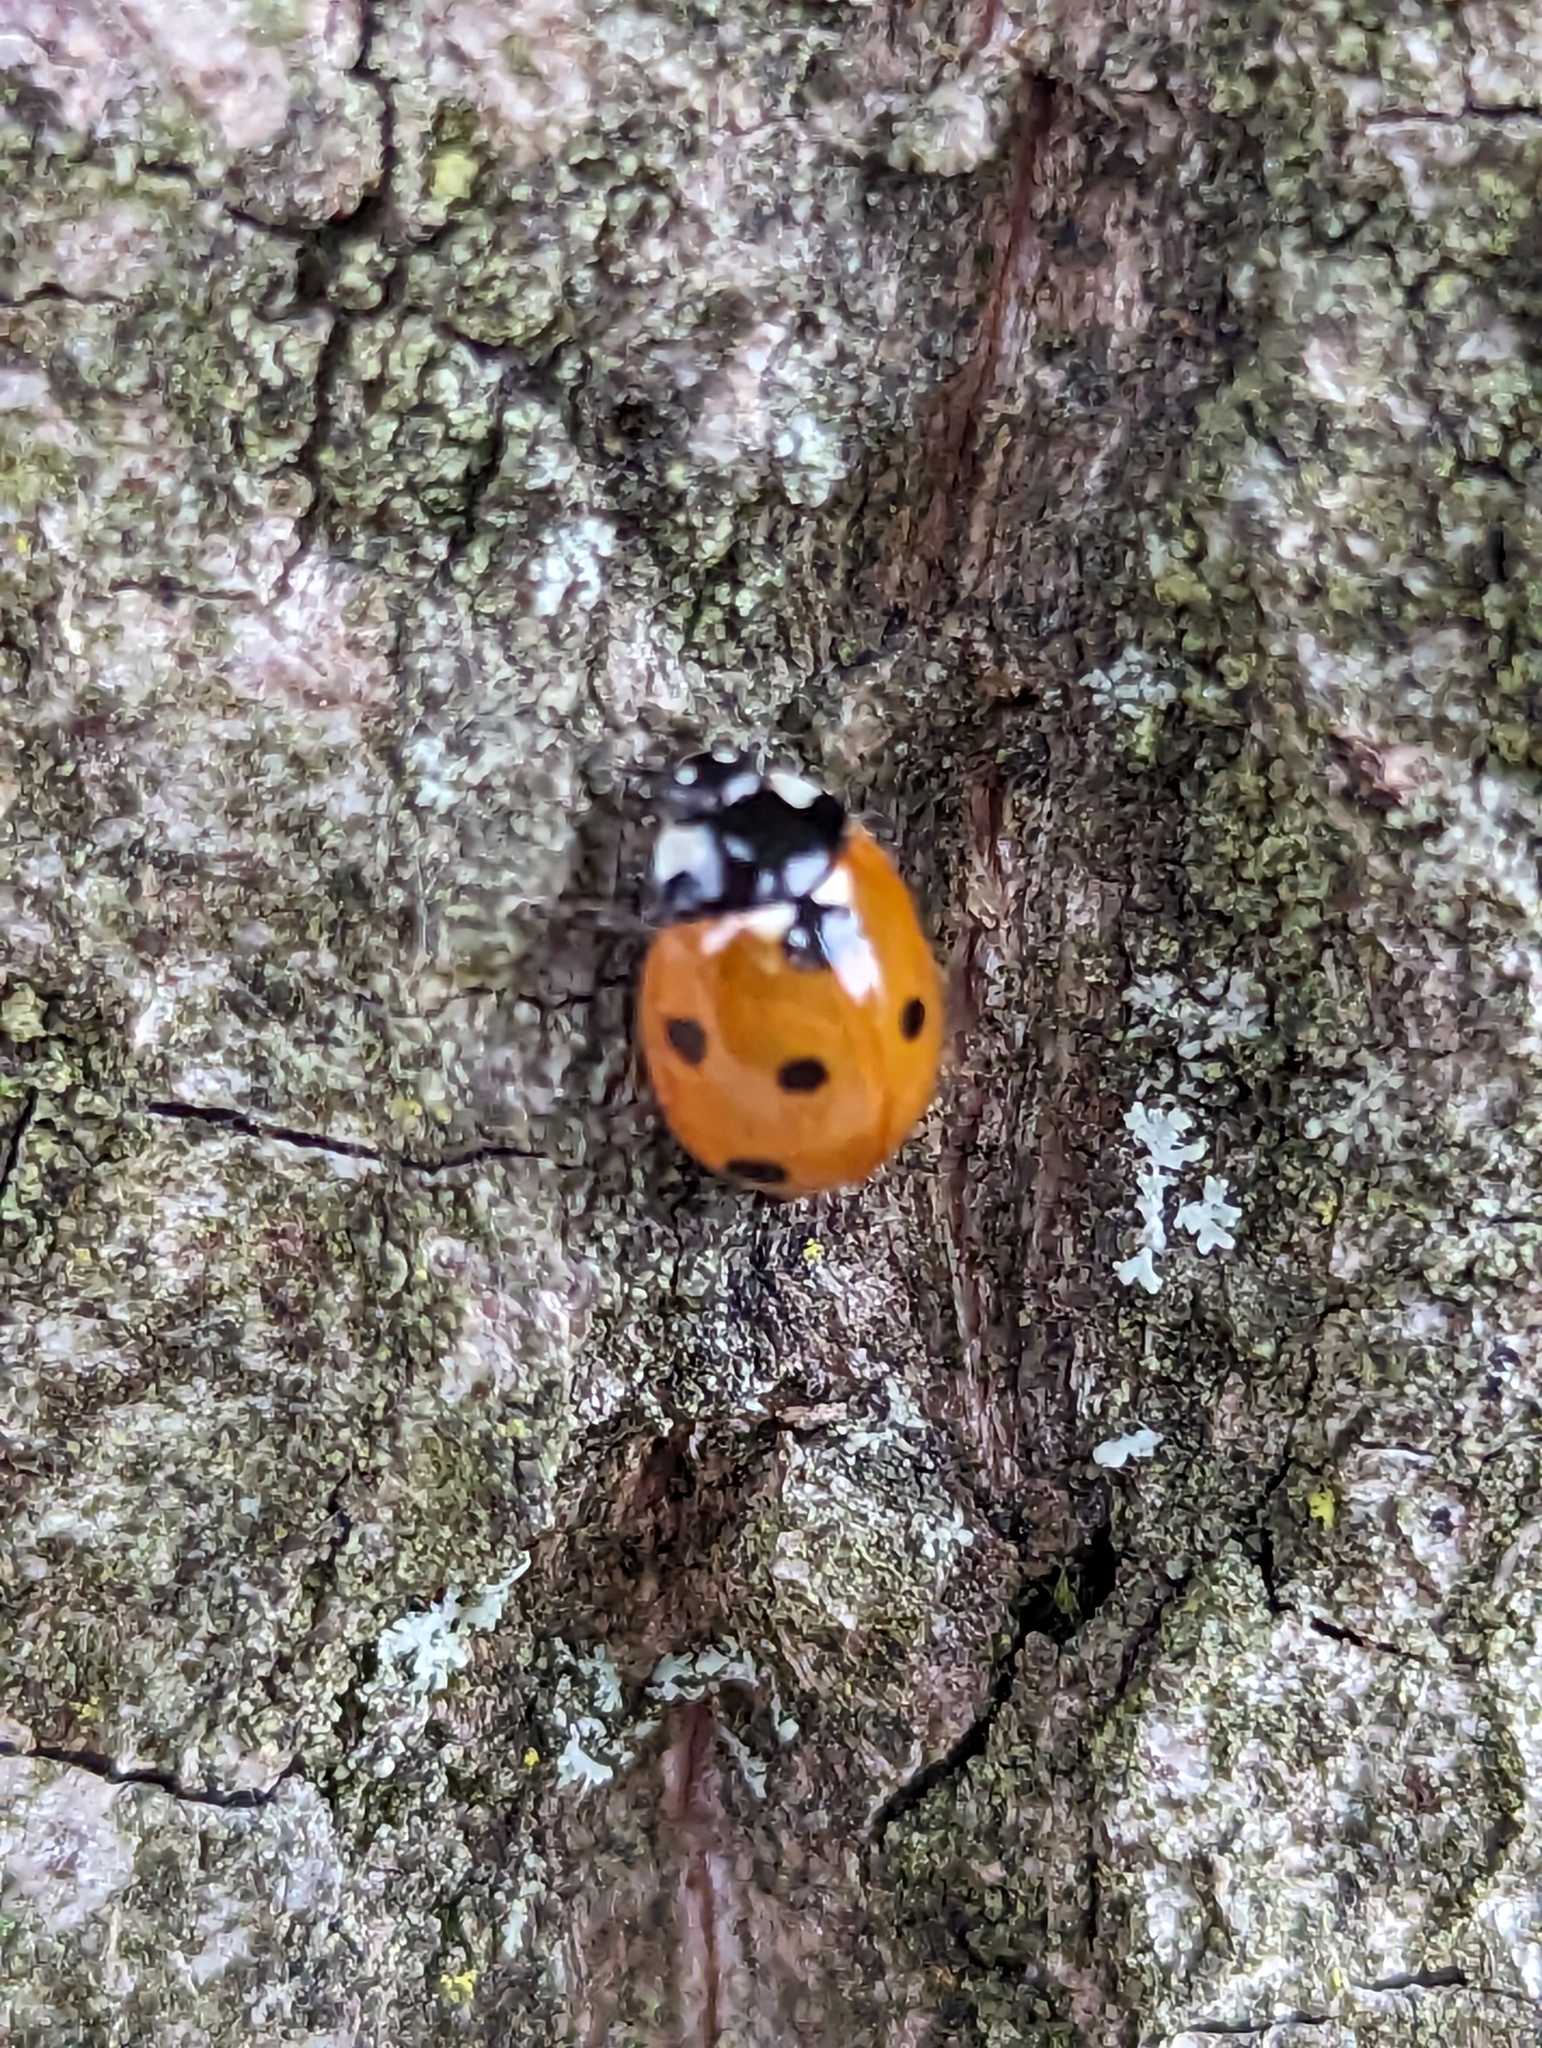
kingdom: Animalia
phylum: Arthropoda
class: Insecta
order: Coleoptera
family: Coccinellidae
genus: Coccinella
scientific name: Coccinella septempunctata
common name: Sevenspotted lady beetle
